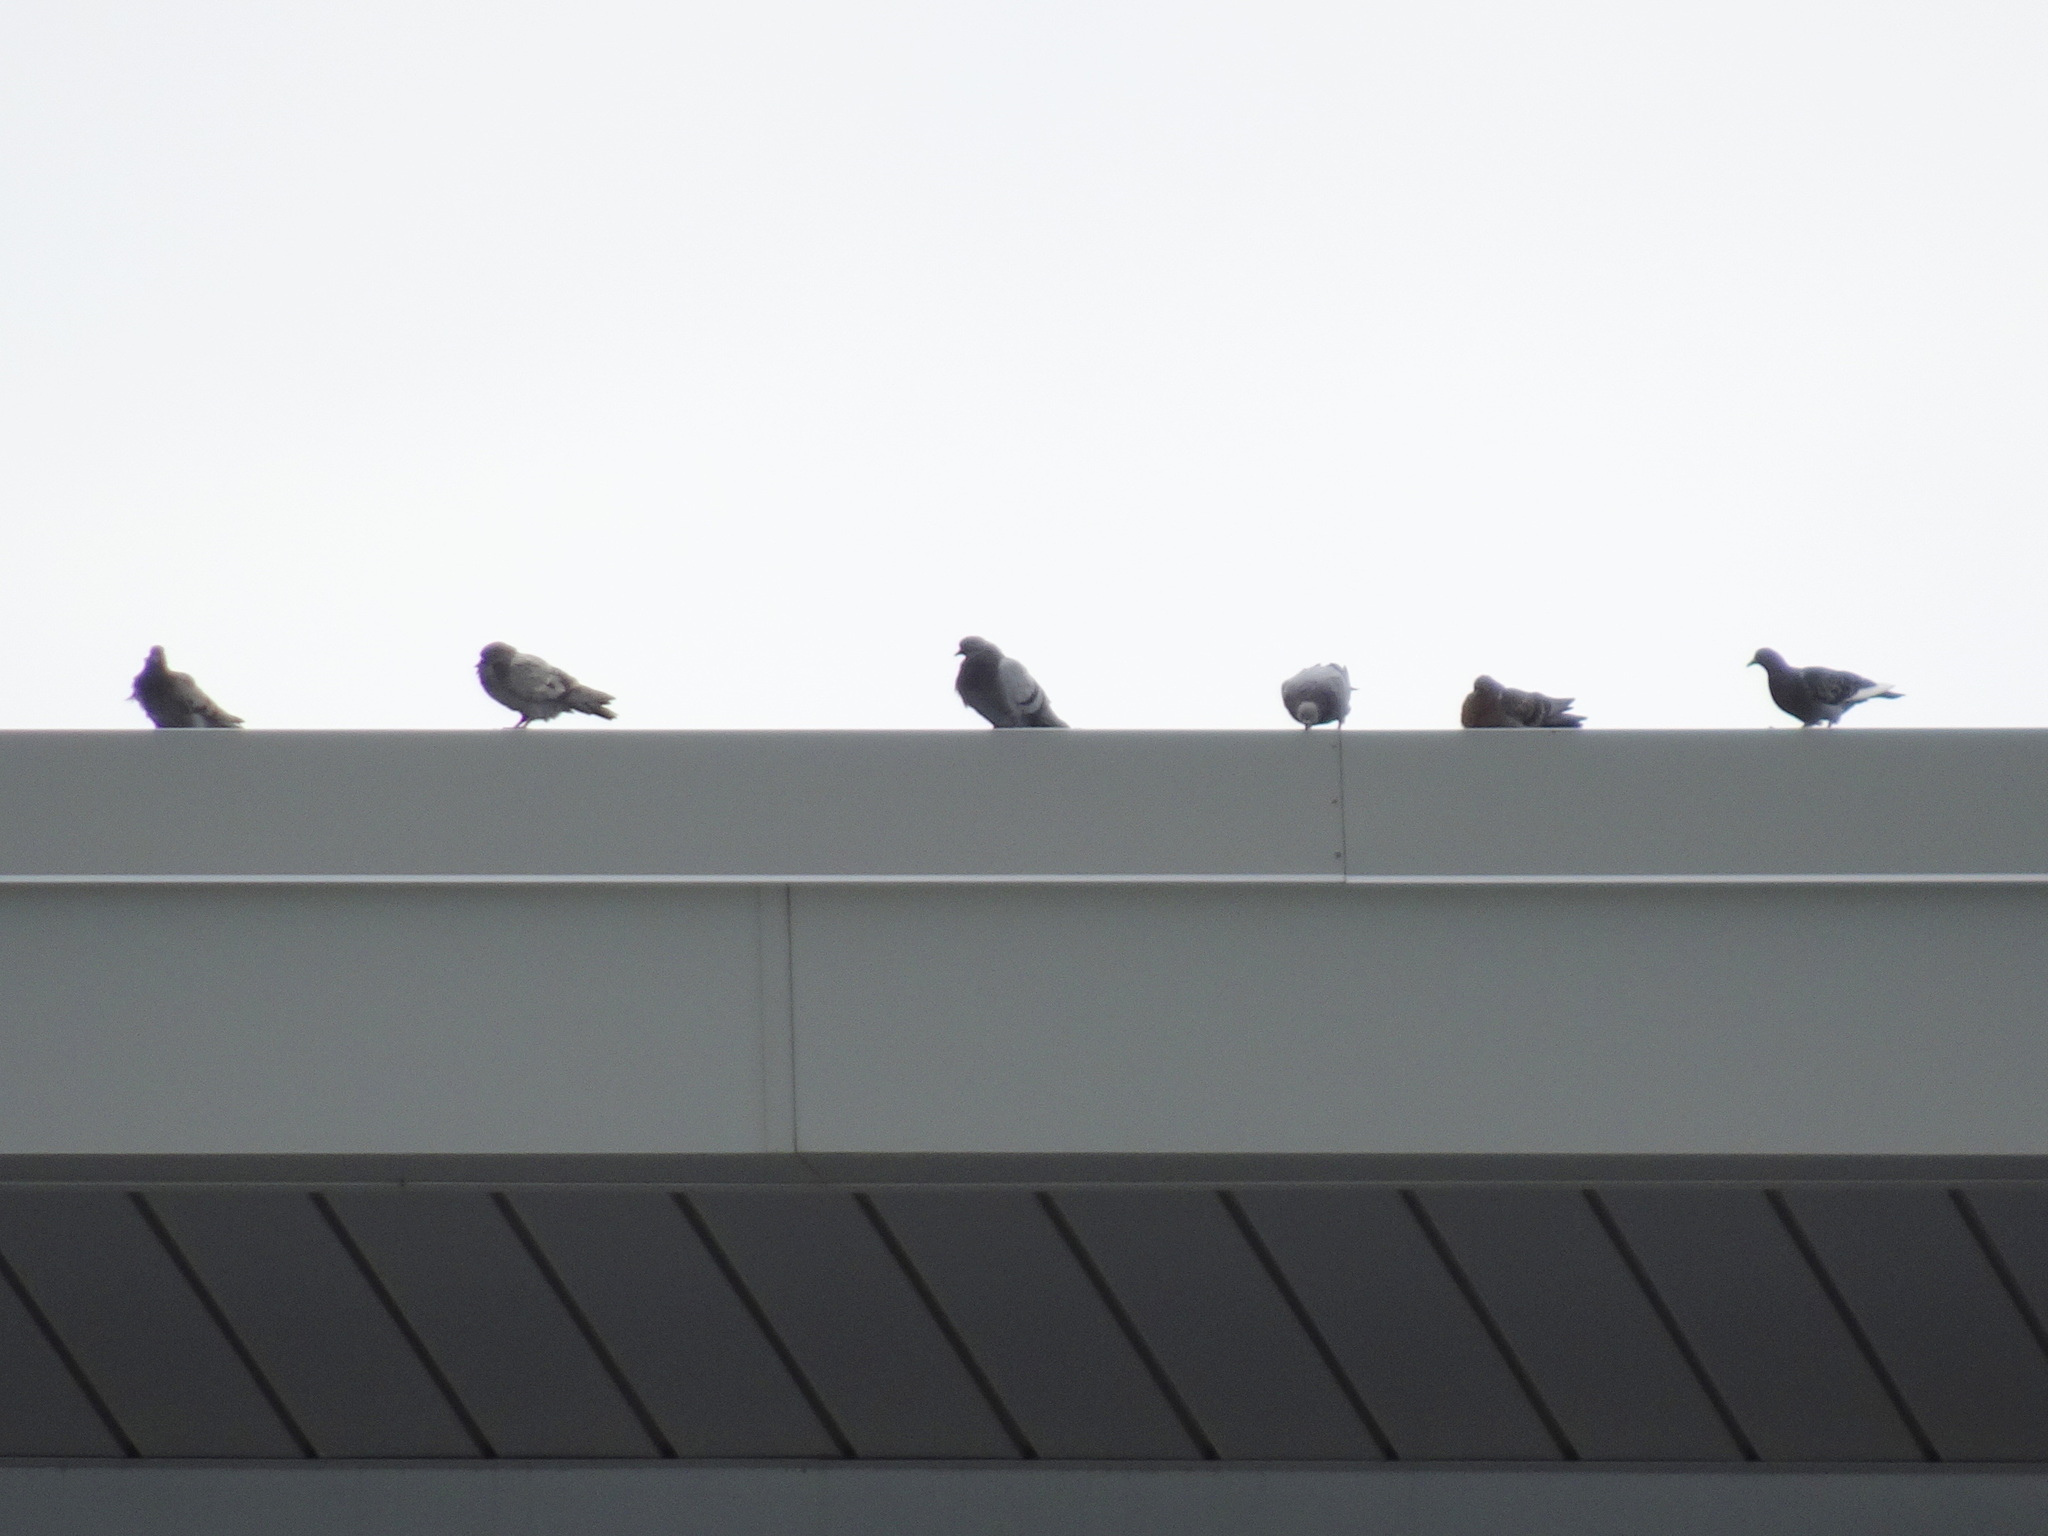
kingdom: Animalia
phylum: Chordata
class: Aves
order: Columbiformes
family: Columbidae
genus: Columba
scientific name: Columba livia
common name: Rock pigeon
